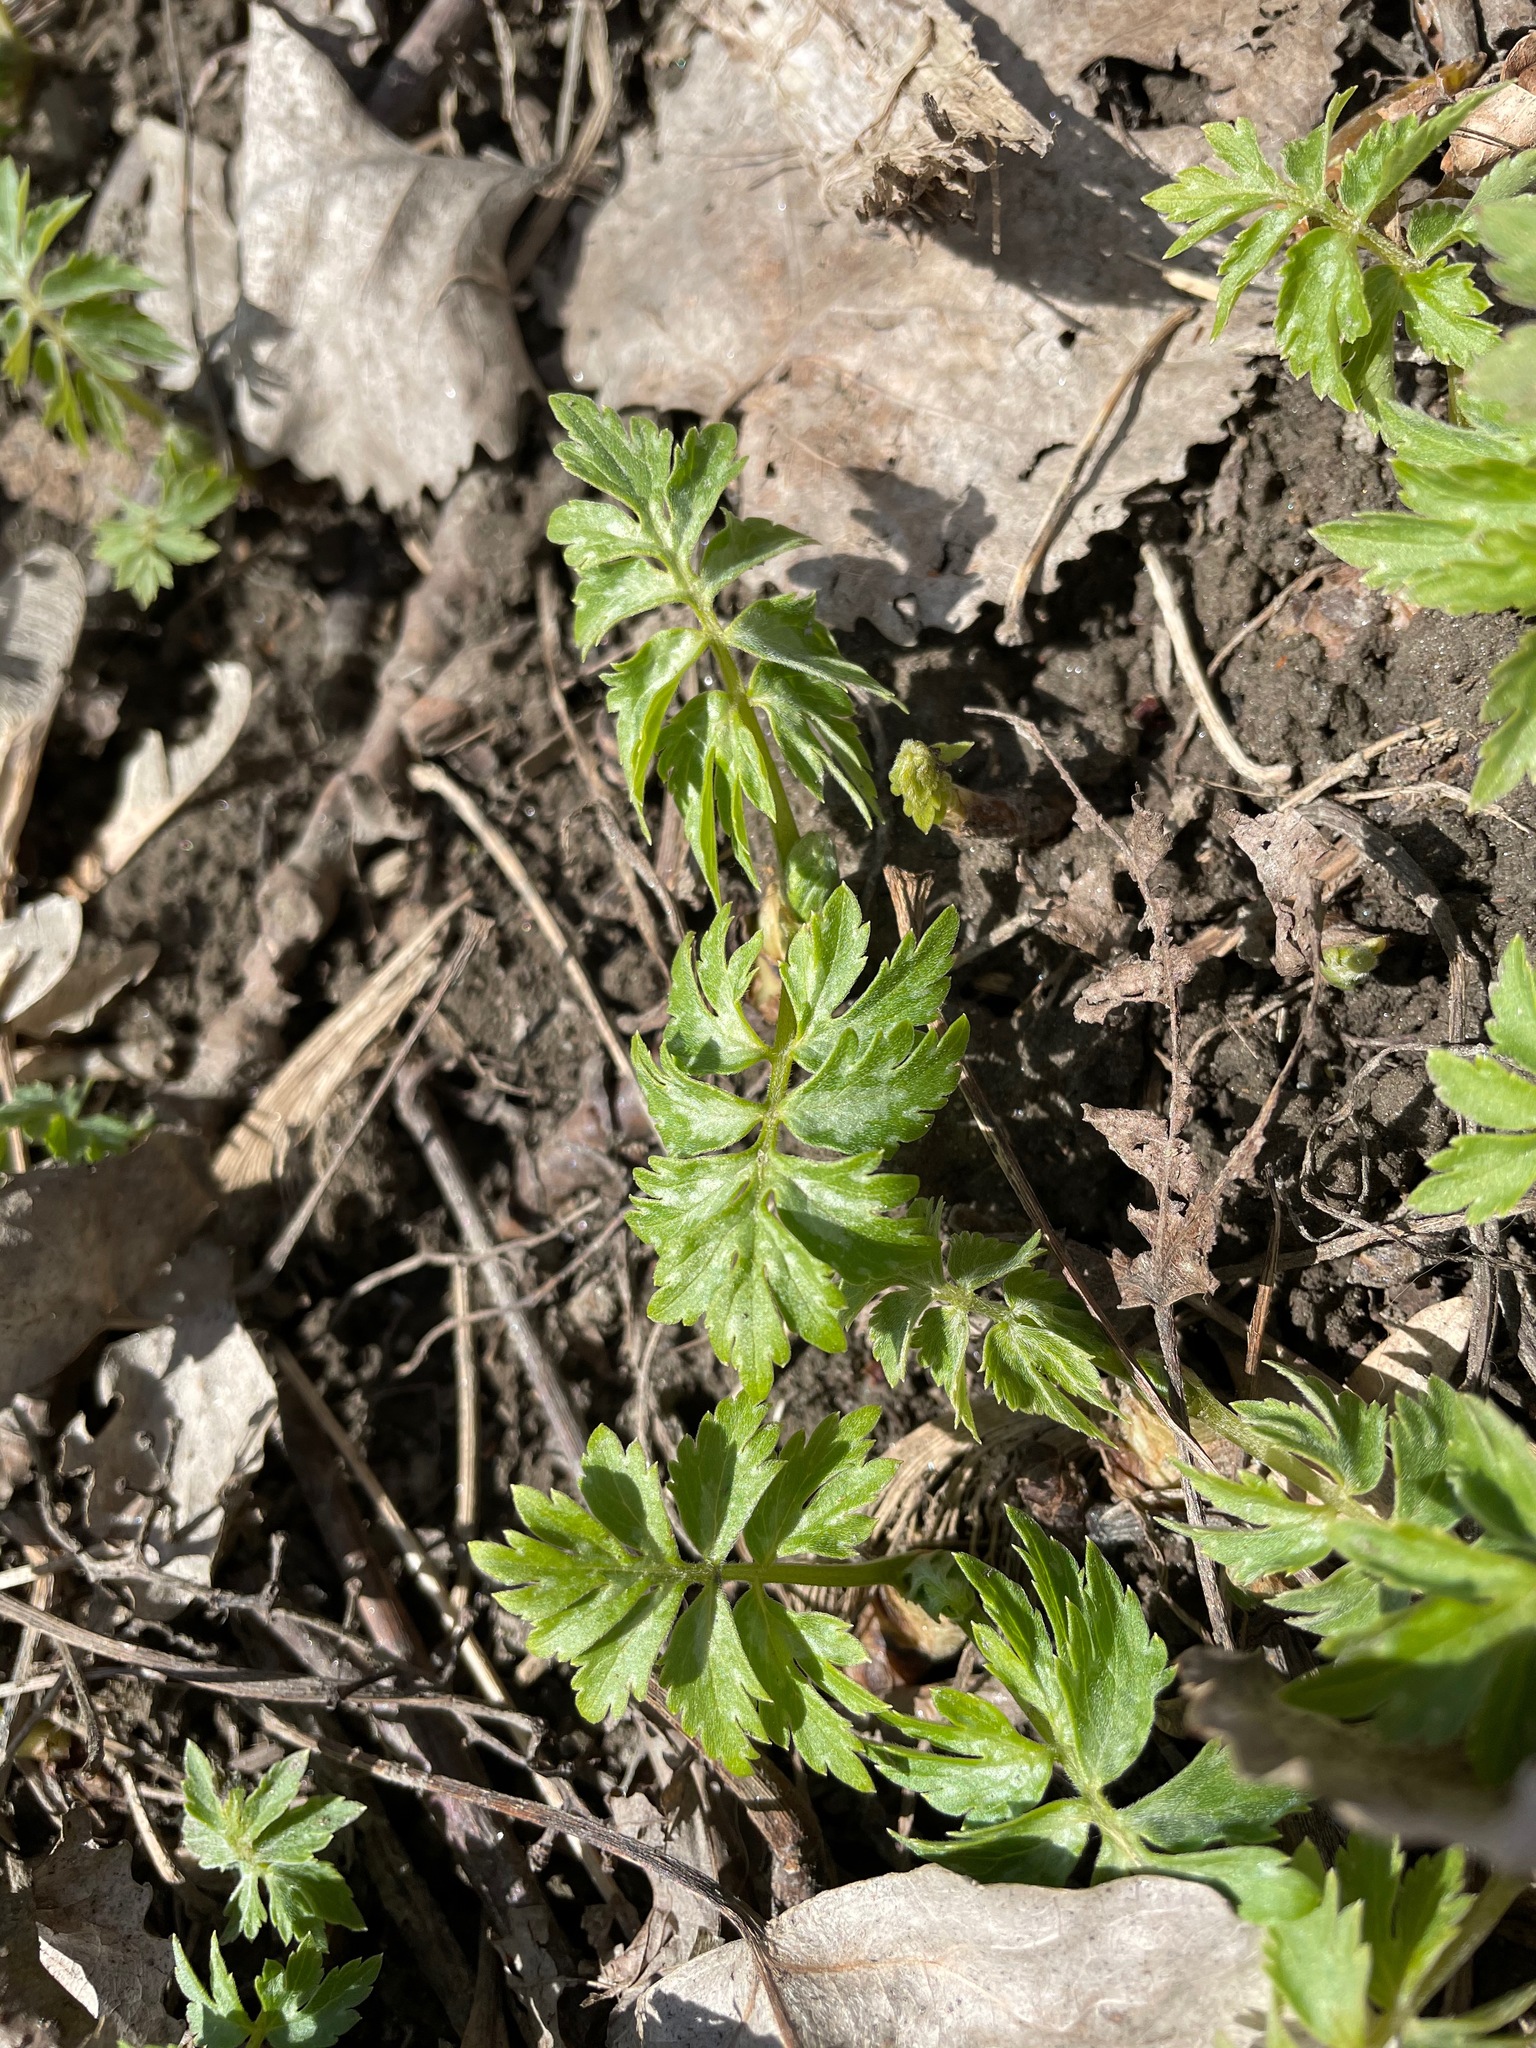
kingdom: Plantae
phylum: Tracheophyta
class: Magnoliopsida
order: Boraginales
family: Hydrophyllaceae
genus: Hydrophyllum
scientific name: Hydrophyllum virginianum
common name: Virginia waterleaf
